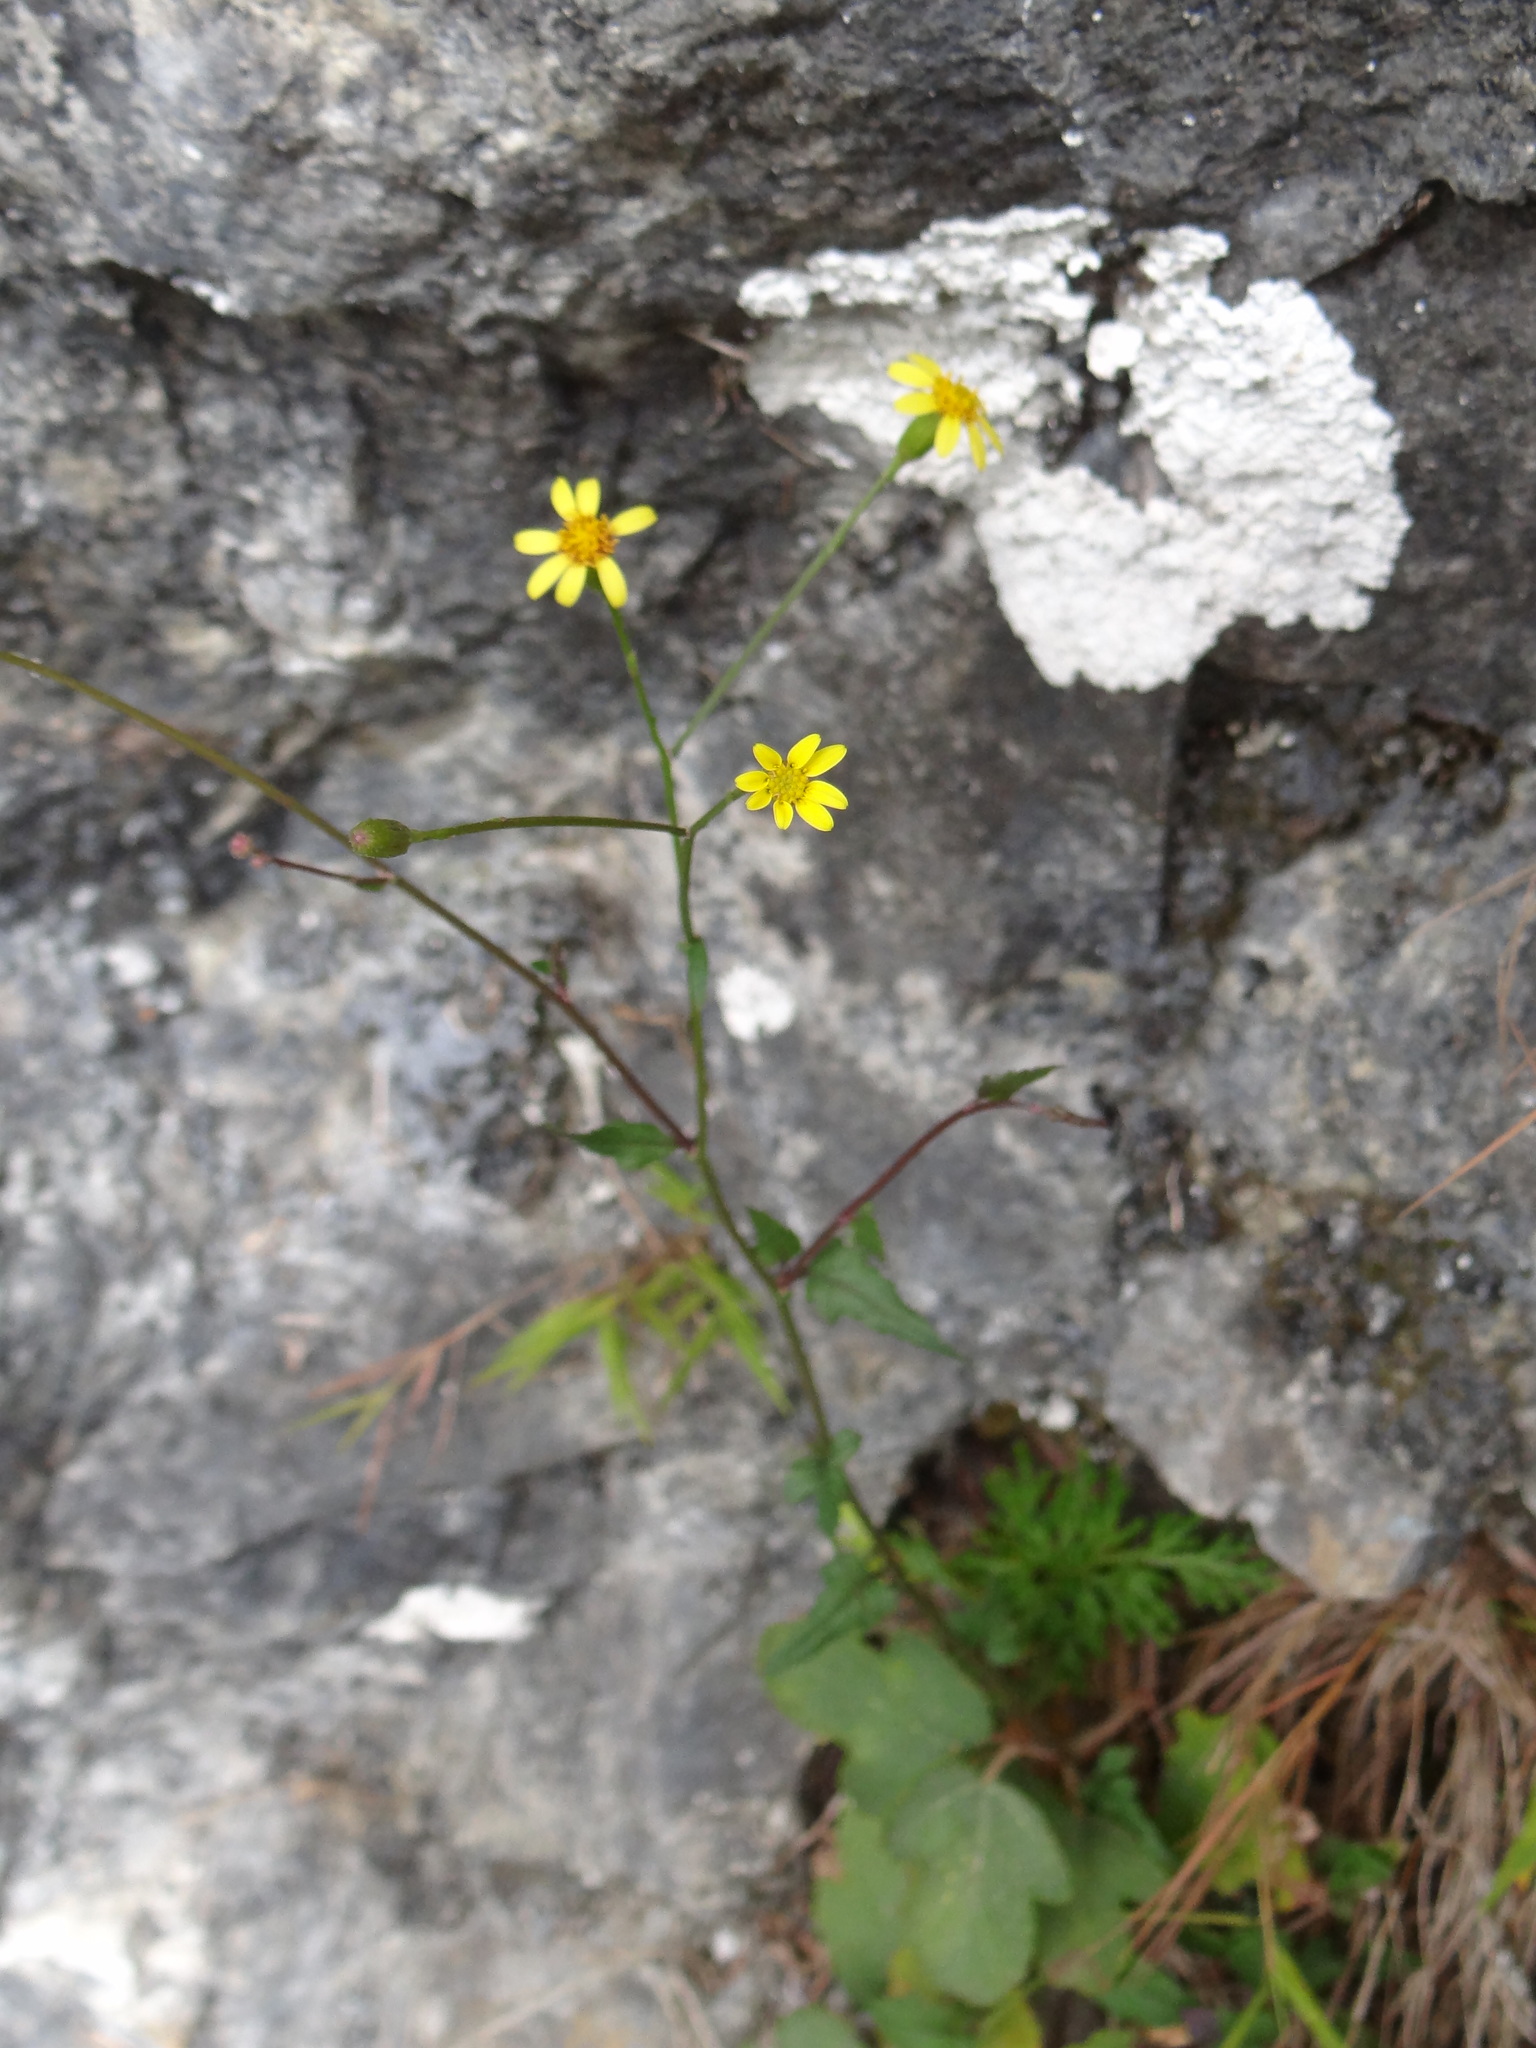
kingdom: Plantae
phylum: Tracheophyta
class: Magnoliopsida
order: Asterales
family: Asteraceae
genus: Senecio
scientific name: Senecio scandens
